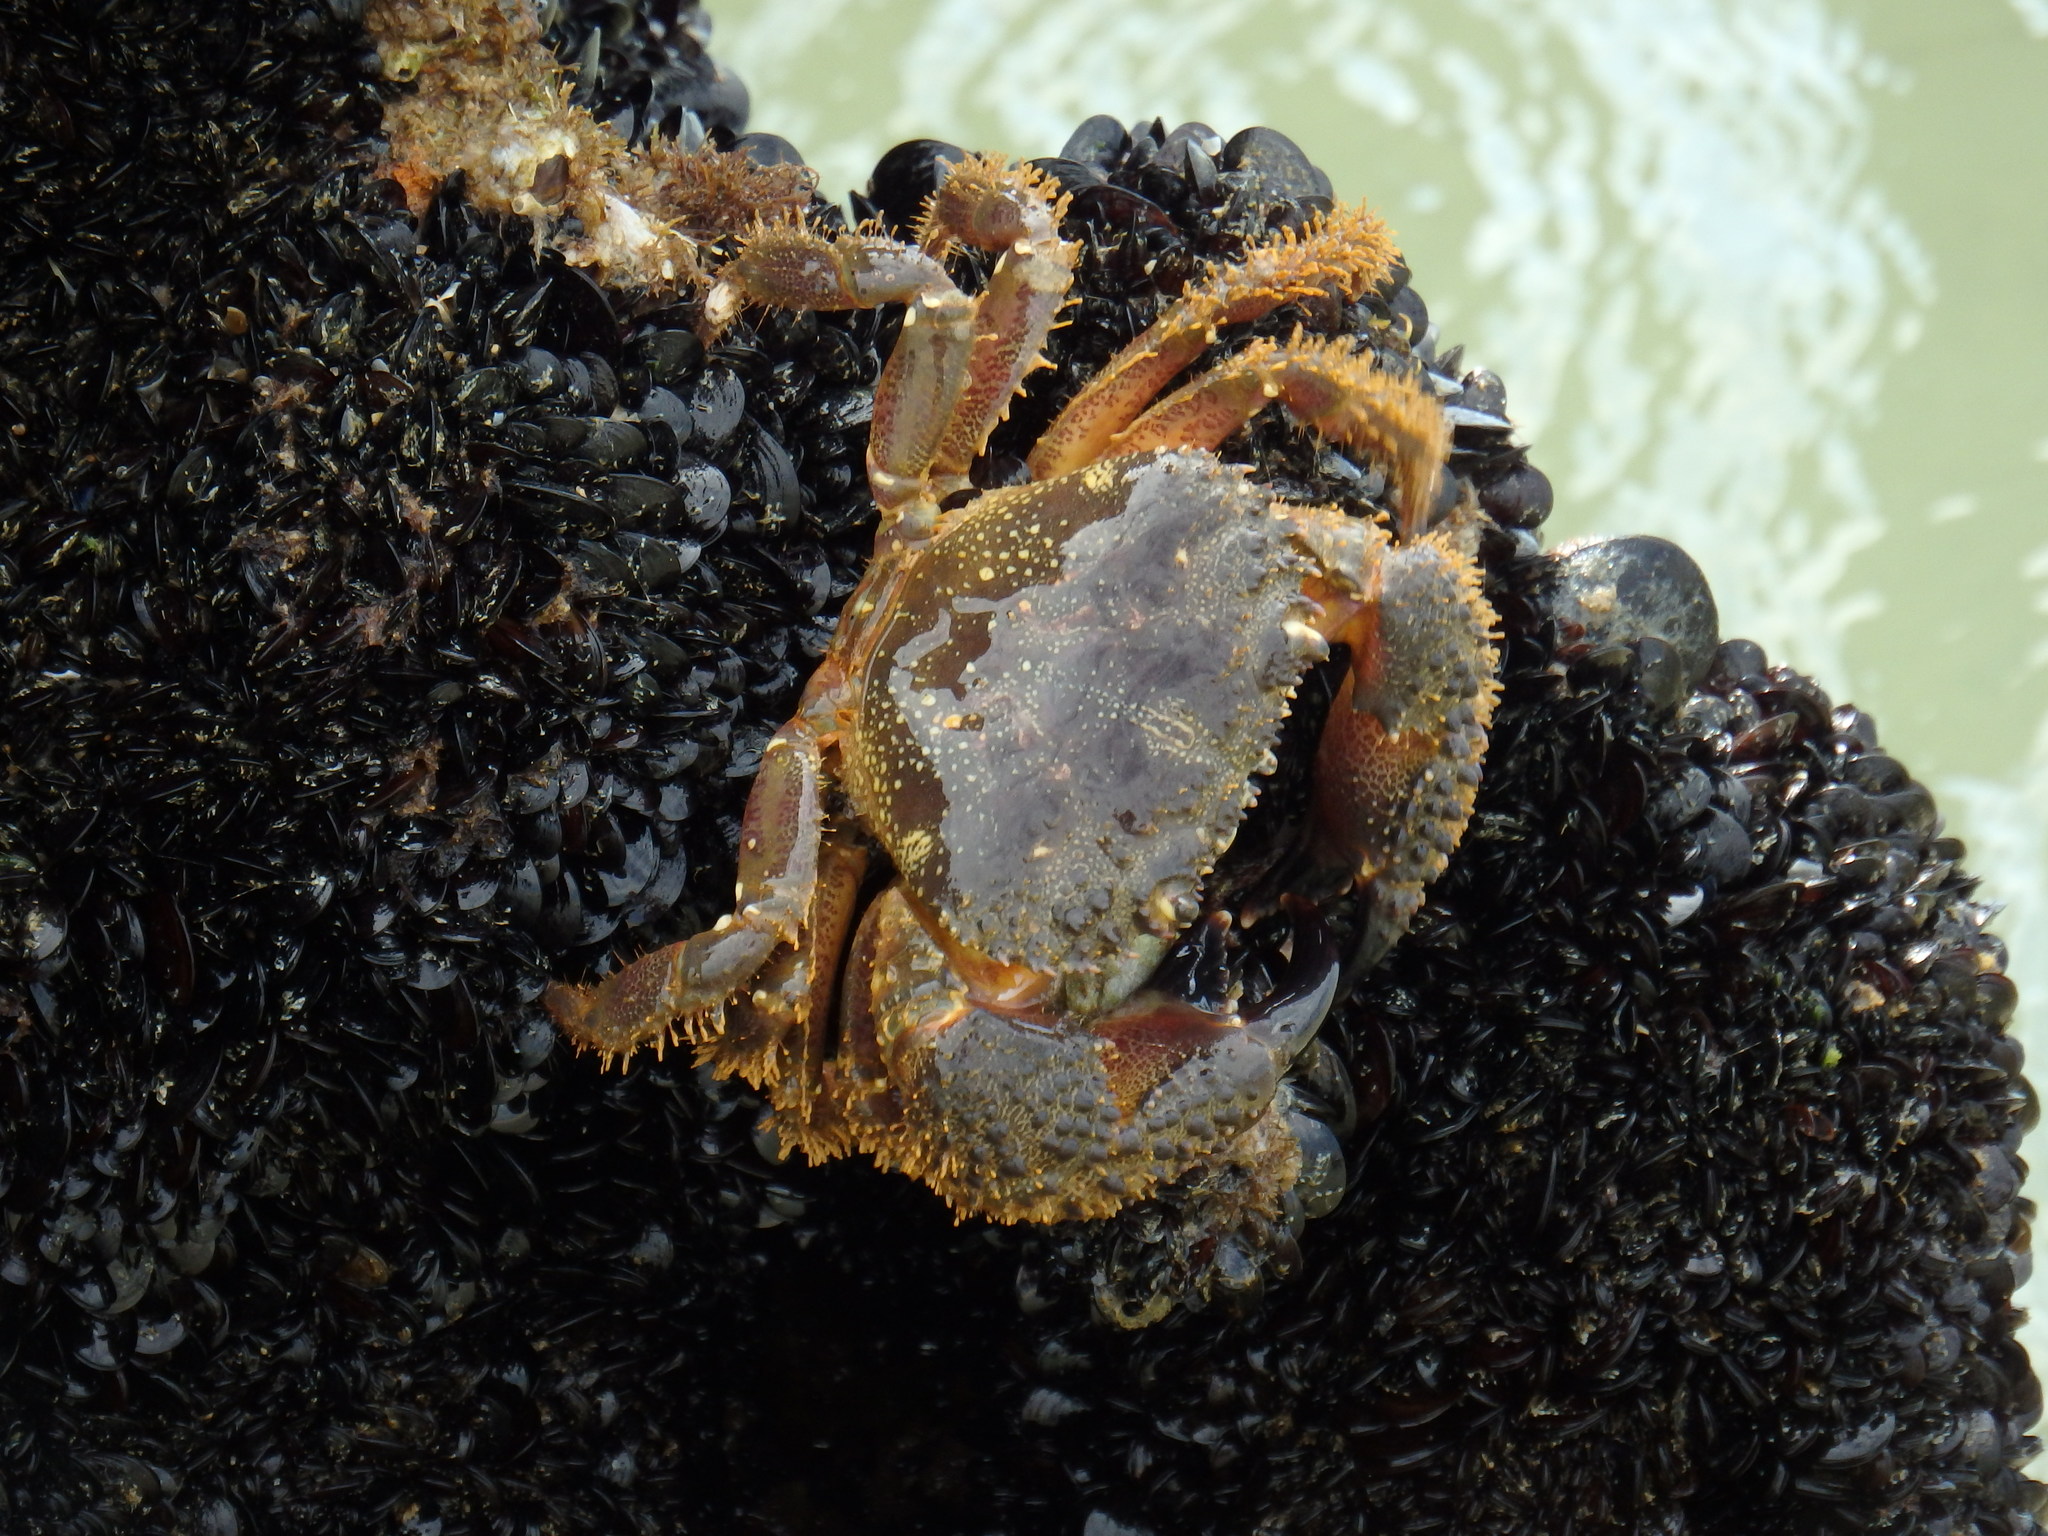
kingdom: Animalia
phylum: Arthropoda
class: Malacostraca
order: Decapoda
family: Eriphiidae
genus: Eriphia
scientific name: Eriphia verrucosa
